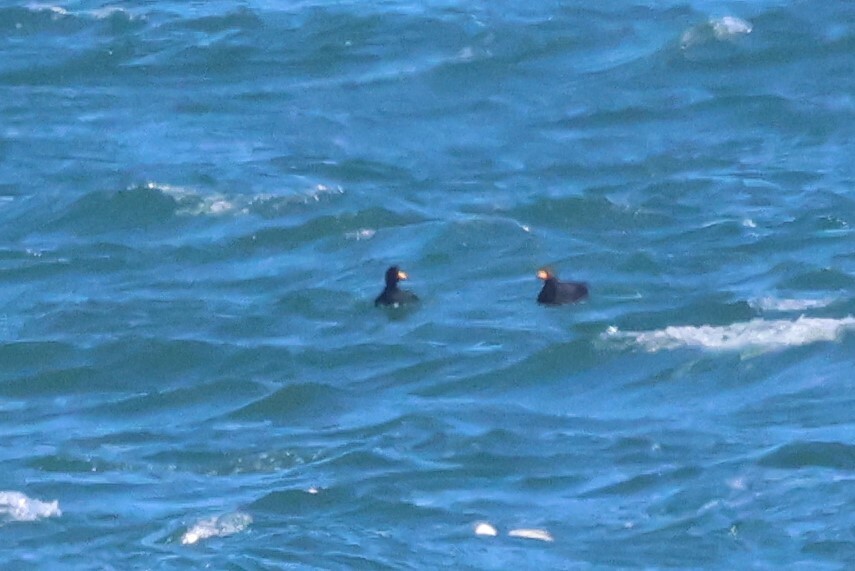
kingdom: Animalia
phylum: Chordata
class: Aves
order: Anseriformes
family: Anatidae
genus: Melanitta
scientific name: Melanitta americana
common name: Black scoter
